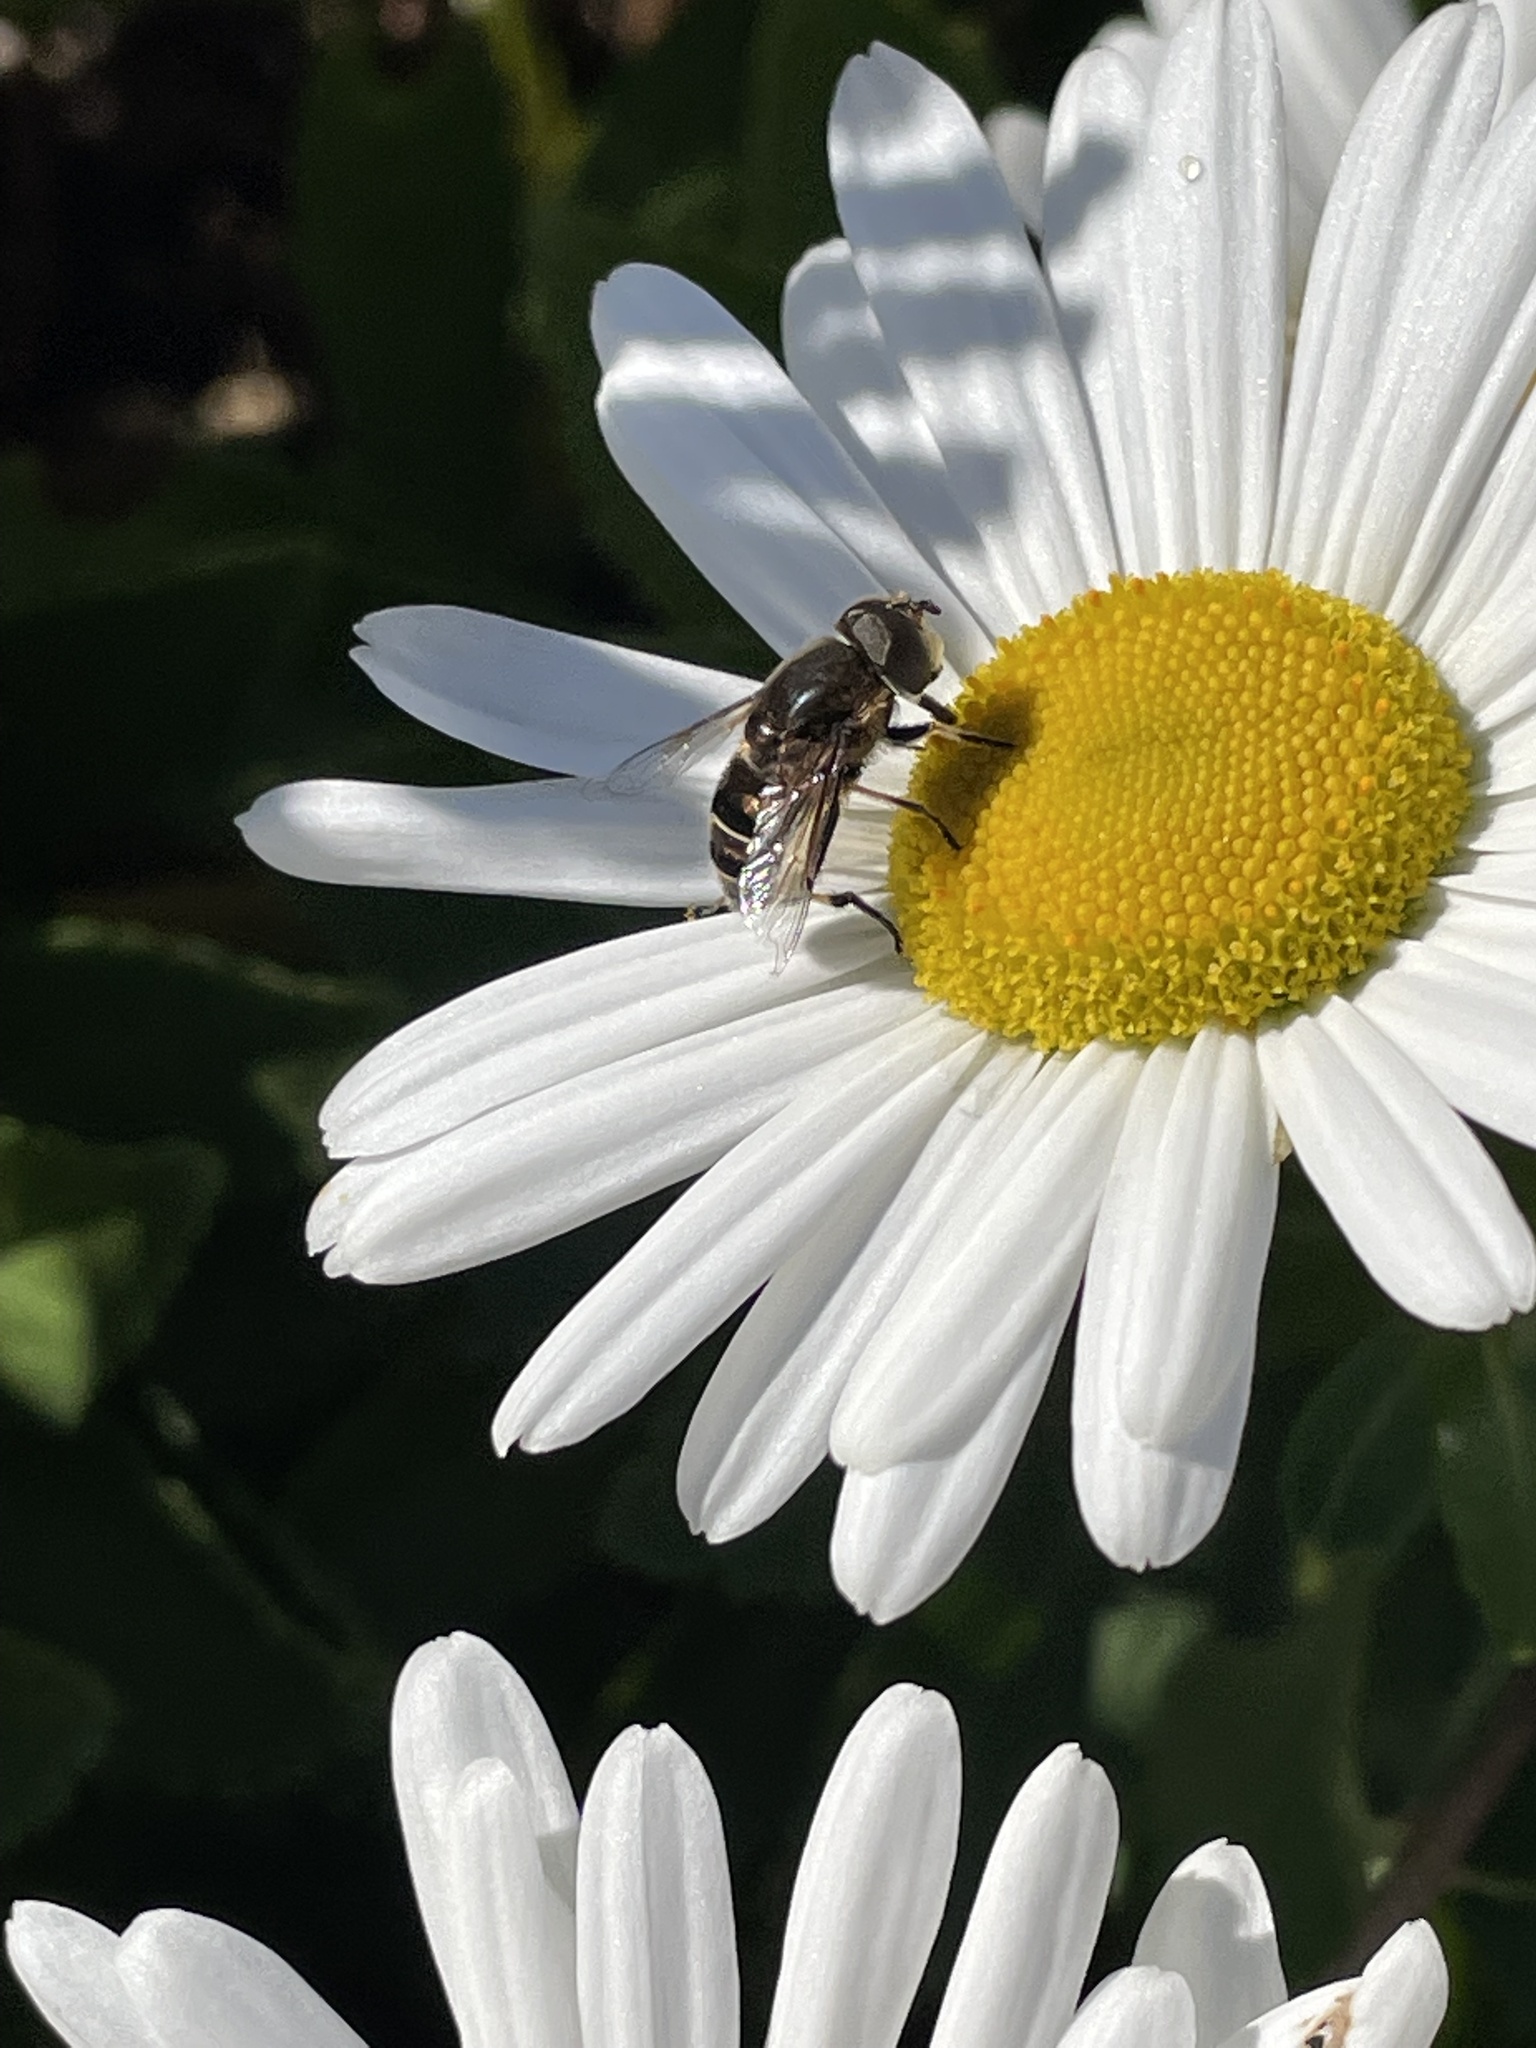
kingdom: Animalia
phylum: Arthropoda
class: Insecta
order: Diptera
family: Syrphidae
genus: Eristalis
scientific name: Eristalis dimidiata
